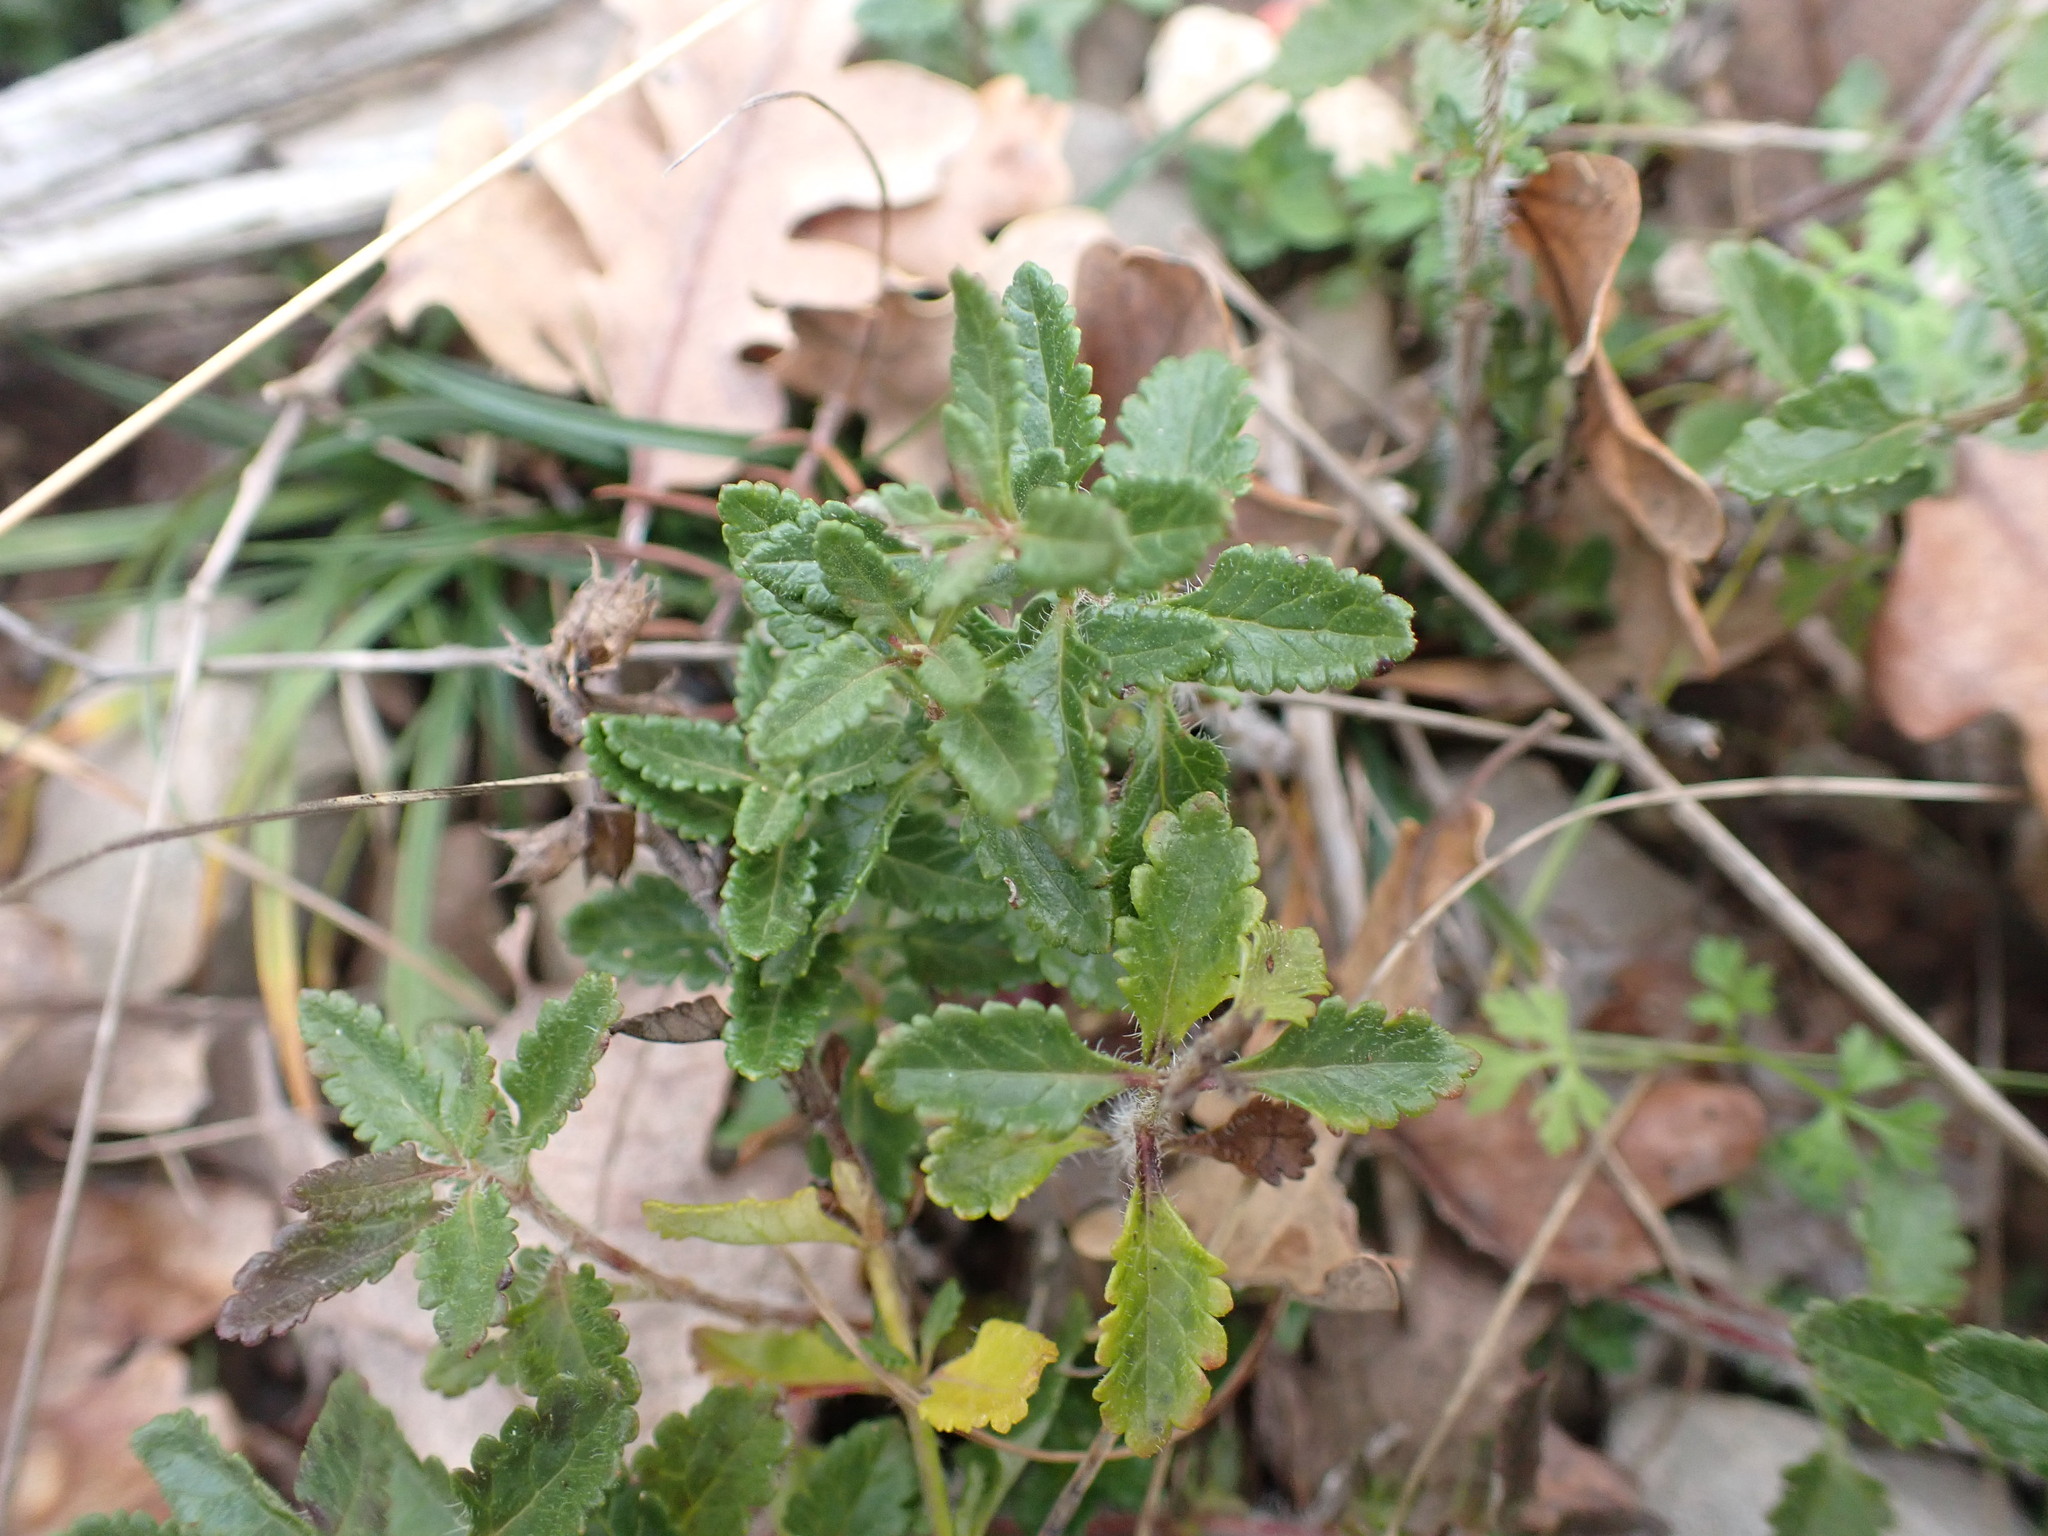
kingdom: Plantae
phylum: Tracheophyta
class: Magnoliopsida
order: Lamiales
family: Lamiaceae
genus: Teucrium
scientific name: Teucrium chamaedrys
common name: Wall germander
